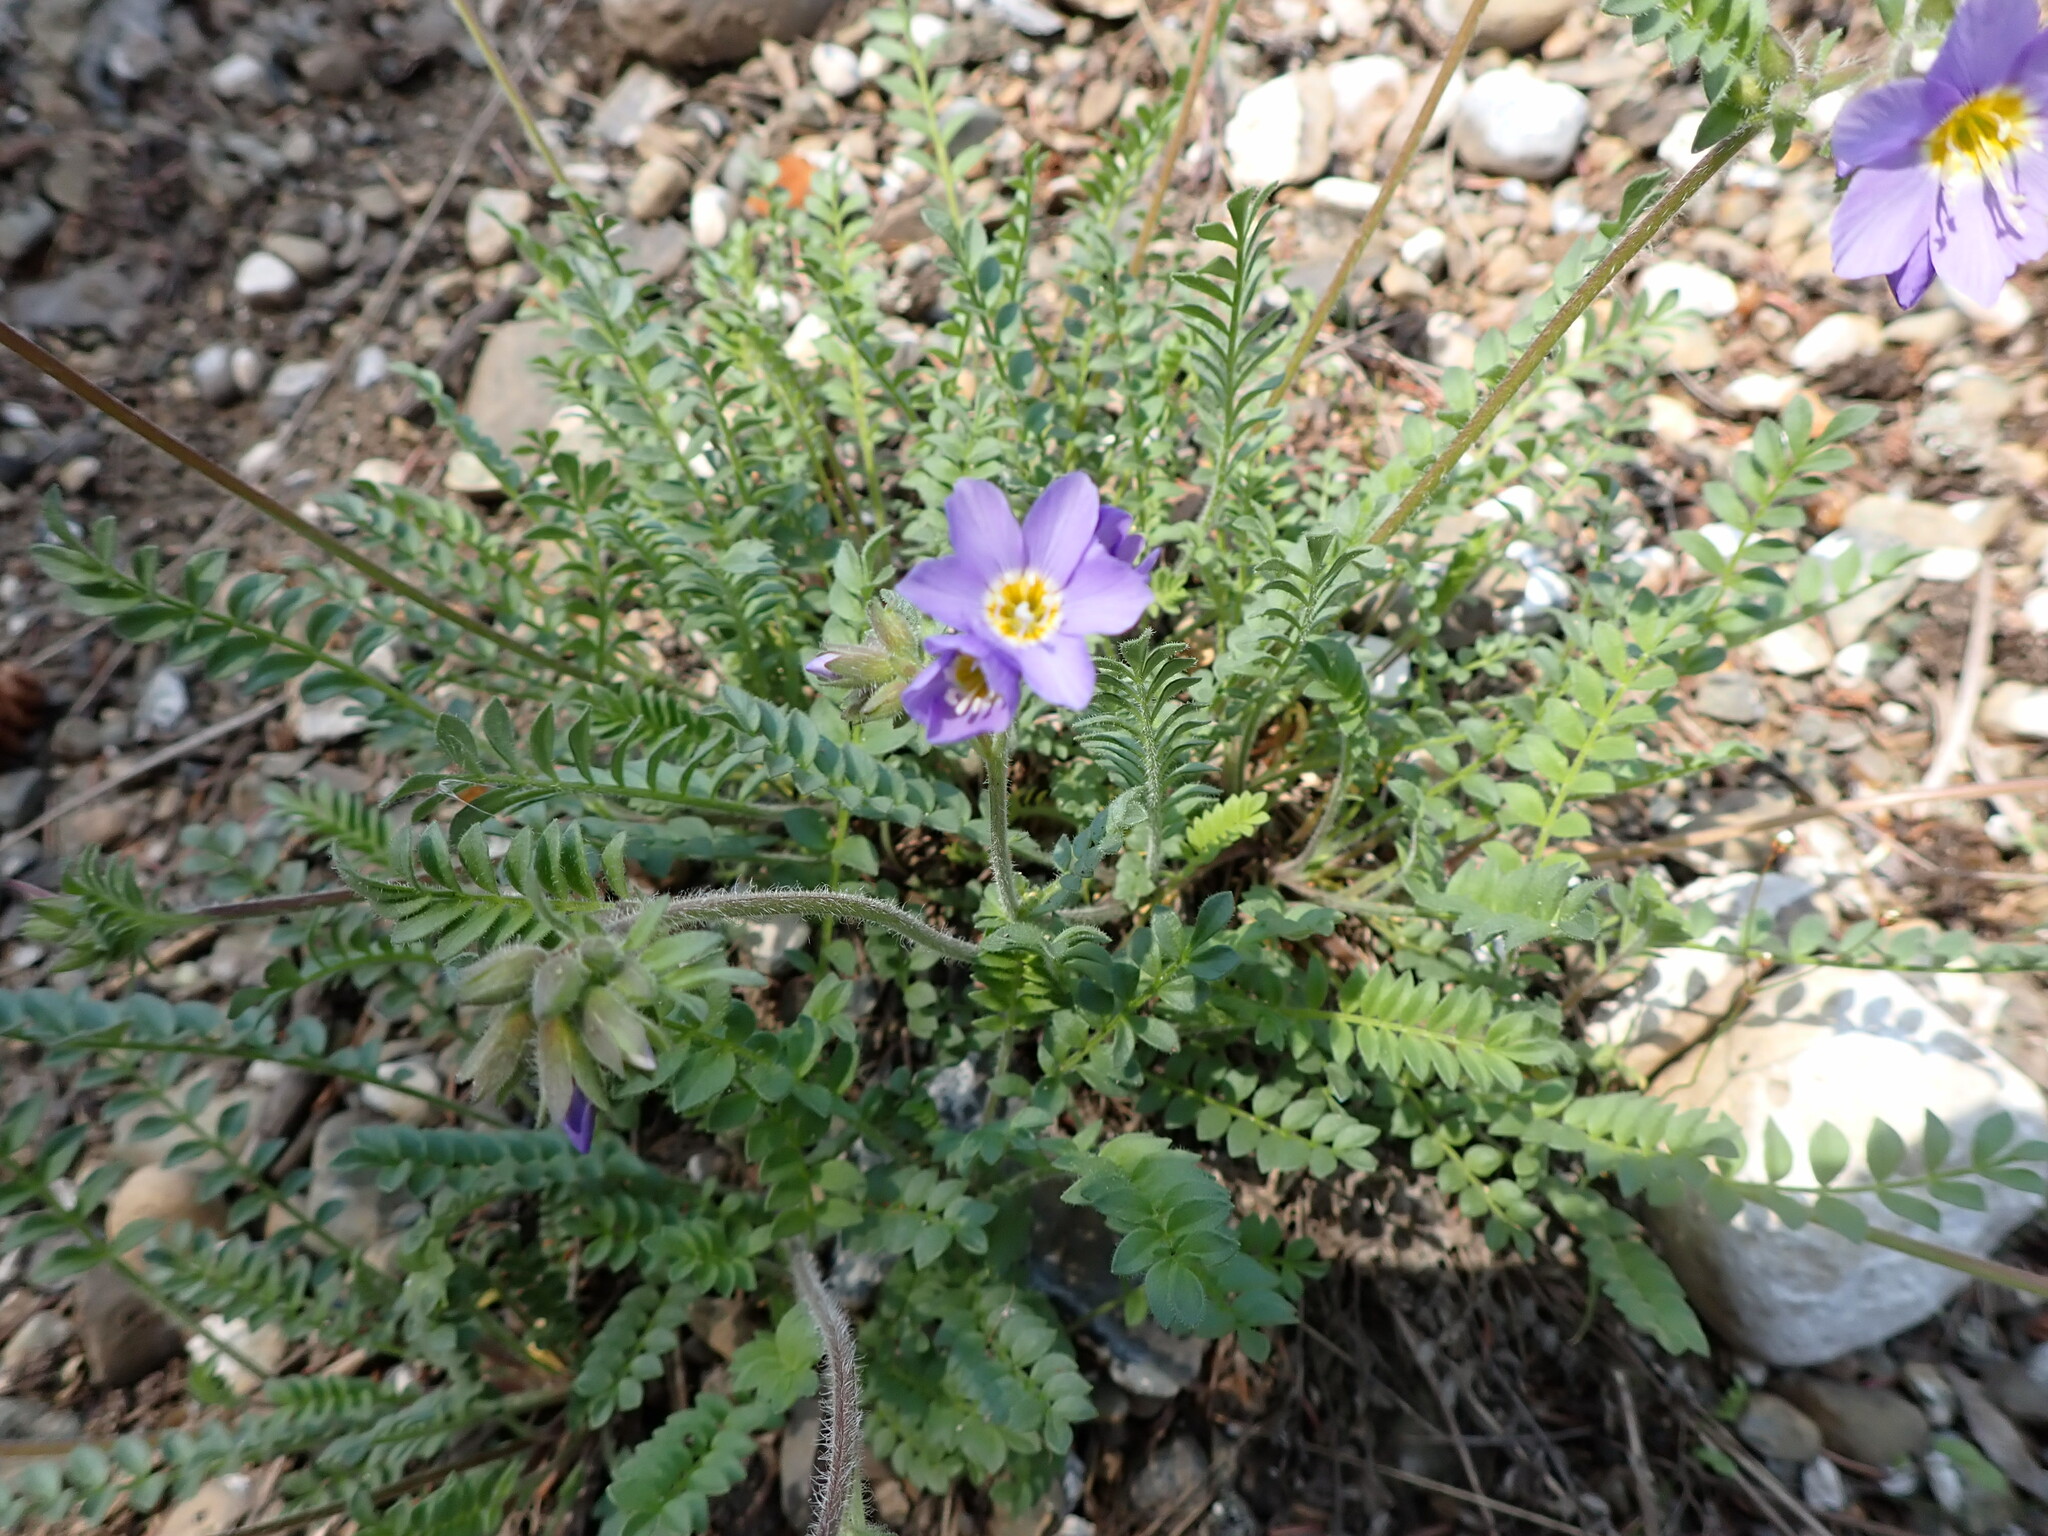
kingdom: Plantae
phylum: Tracheophyta
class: Magnoliopsida
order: Ericales
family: Polemoniaceae
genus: Polemonium
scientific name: Polemonium pulcherrimum
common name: Short jacob's-ladder
